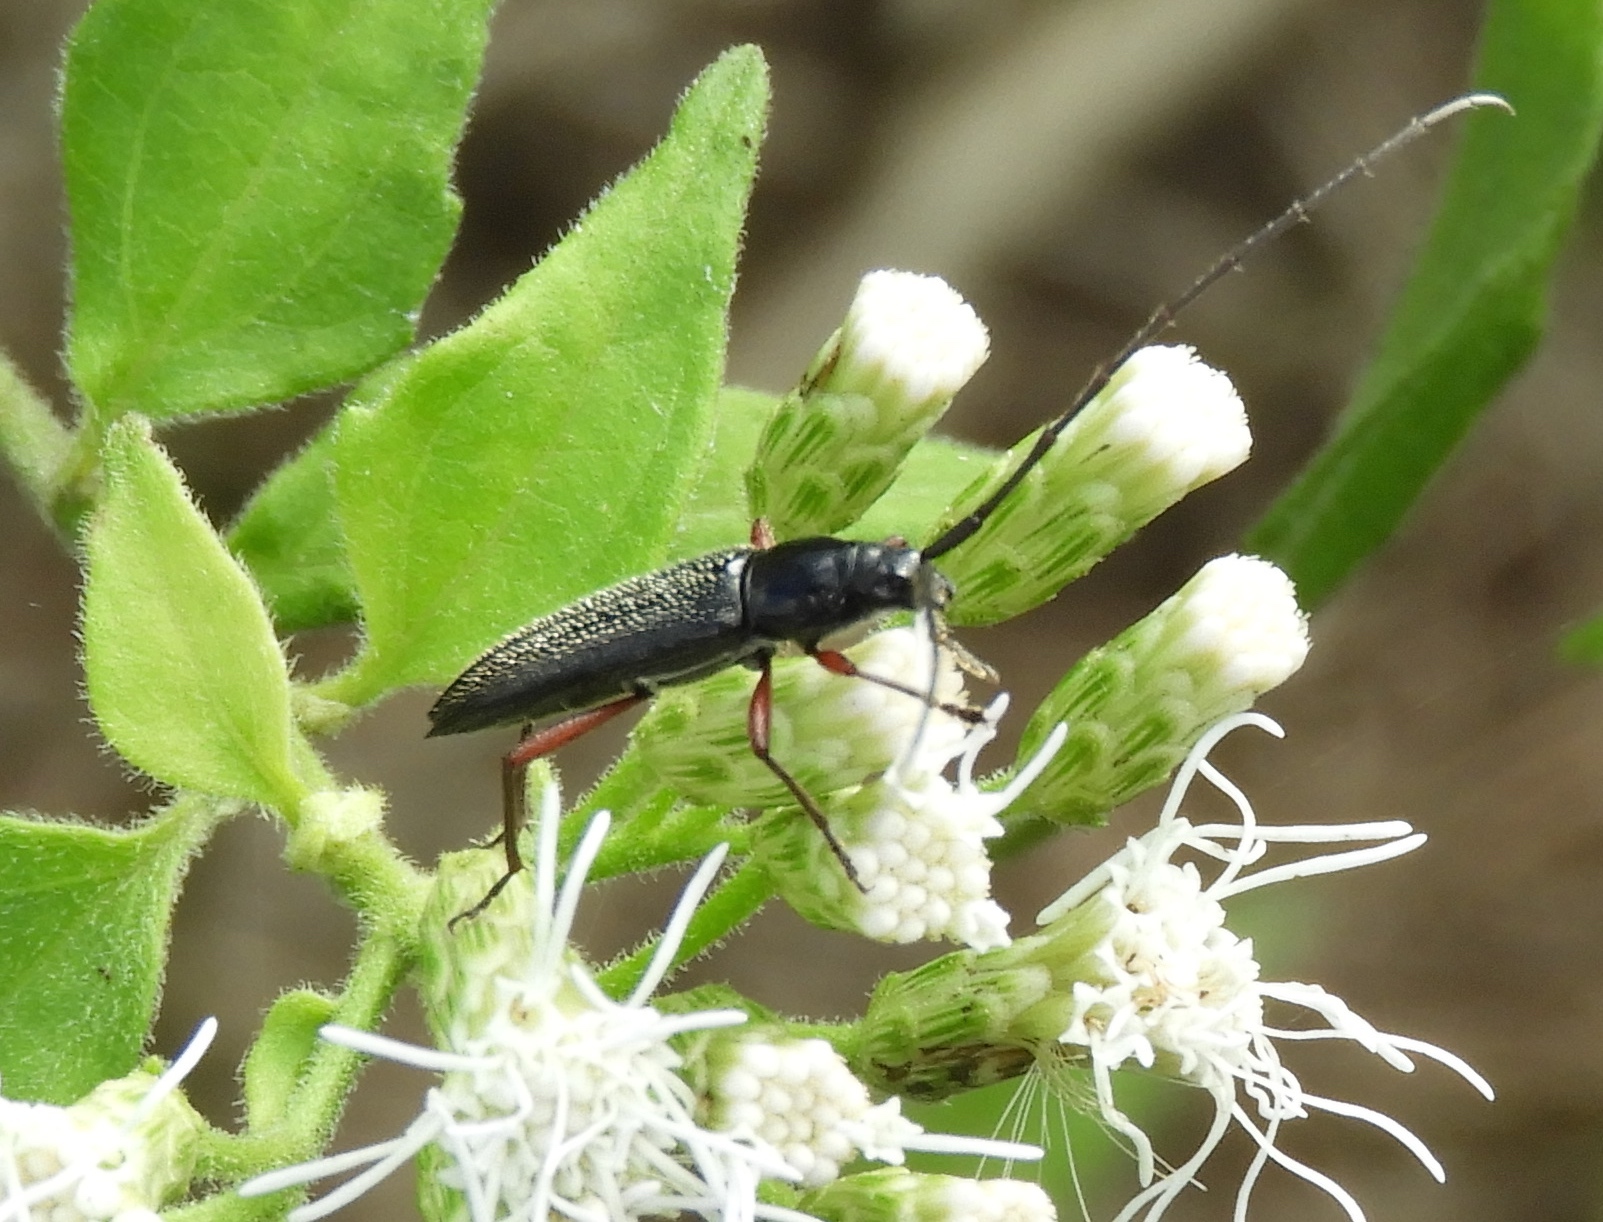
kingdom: Animalia
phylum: Arthropoda
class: Insecta
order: Coleoptera
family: Cerambycidae
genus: Stenosphenus
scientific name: Stenosphenus
